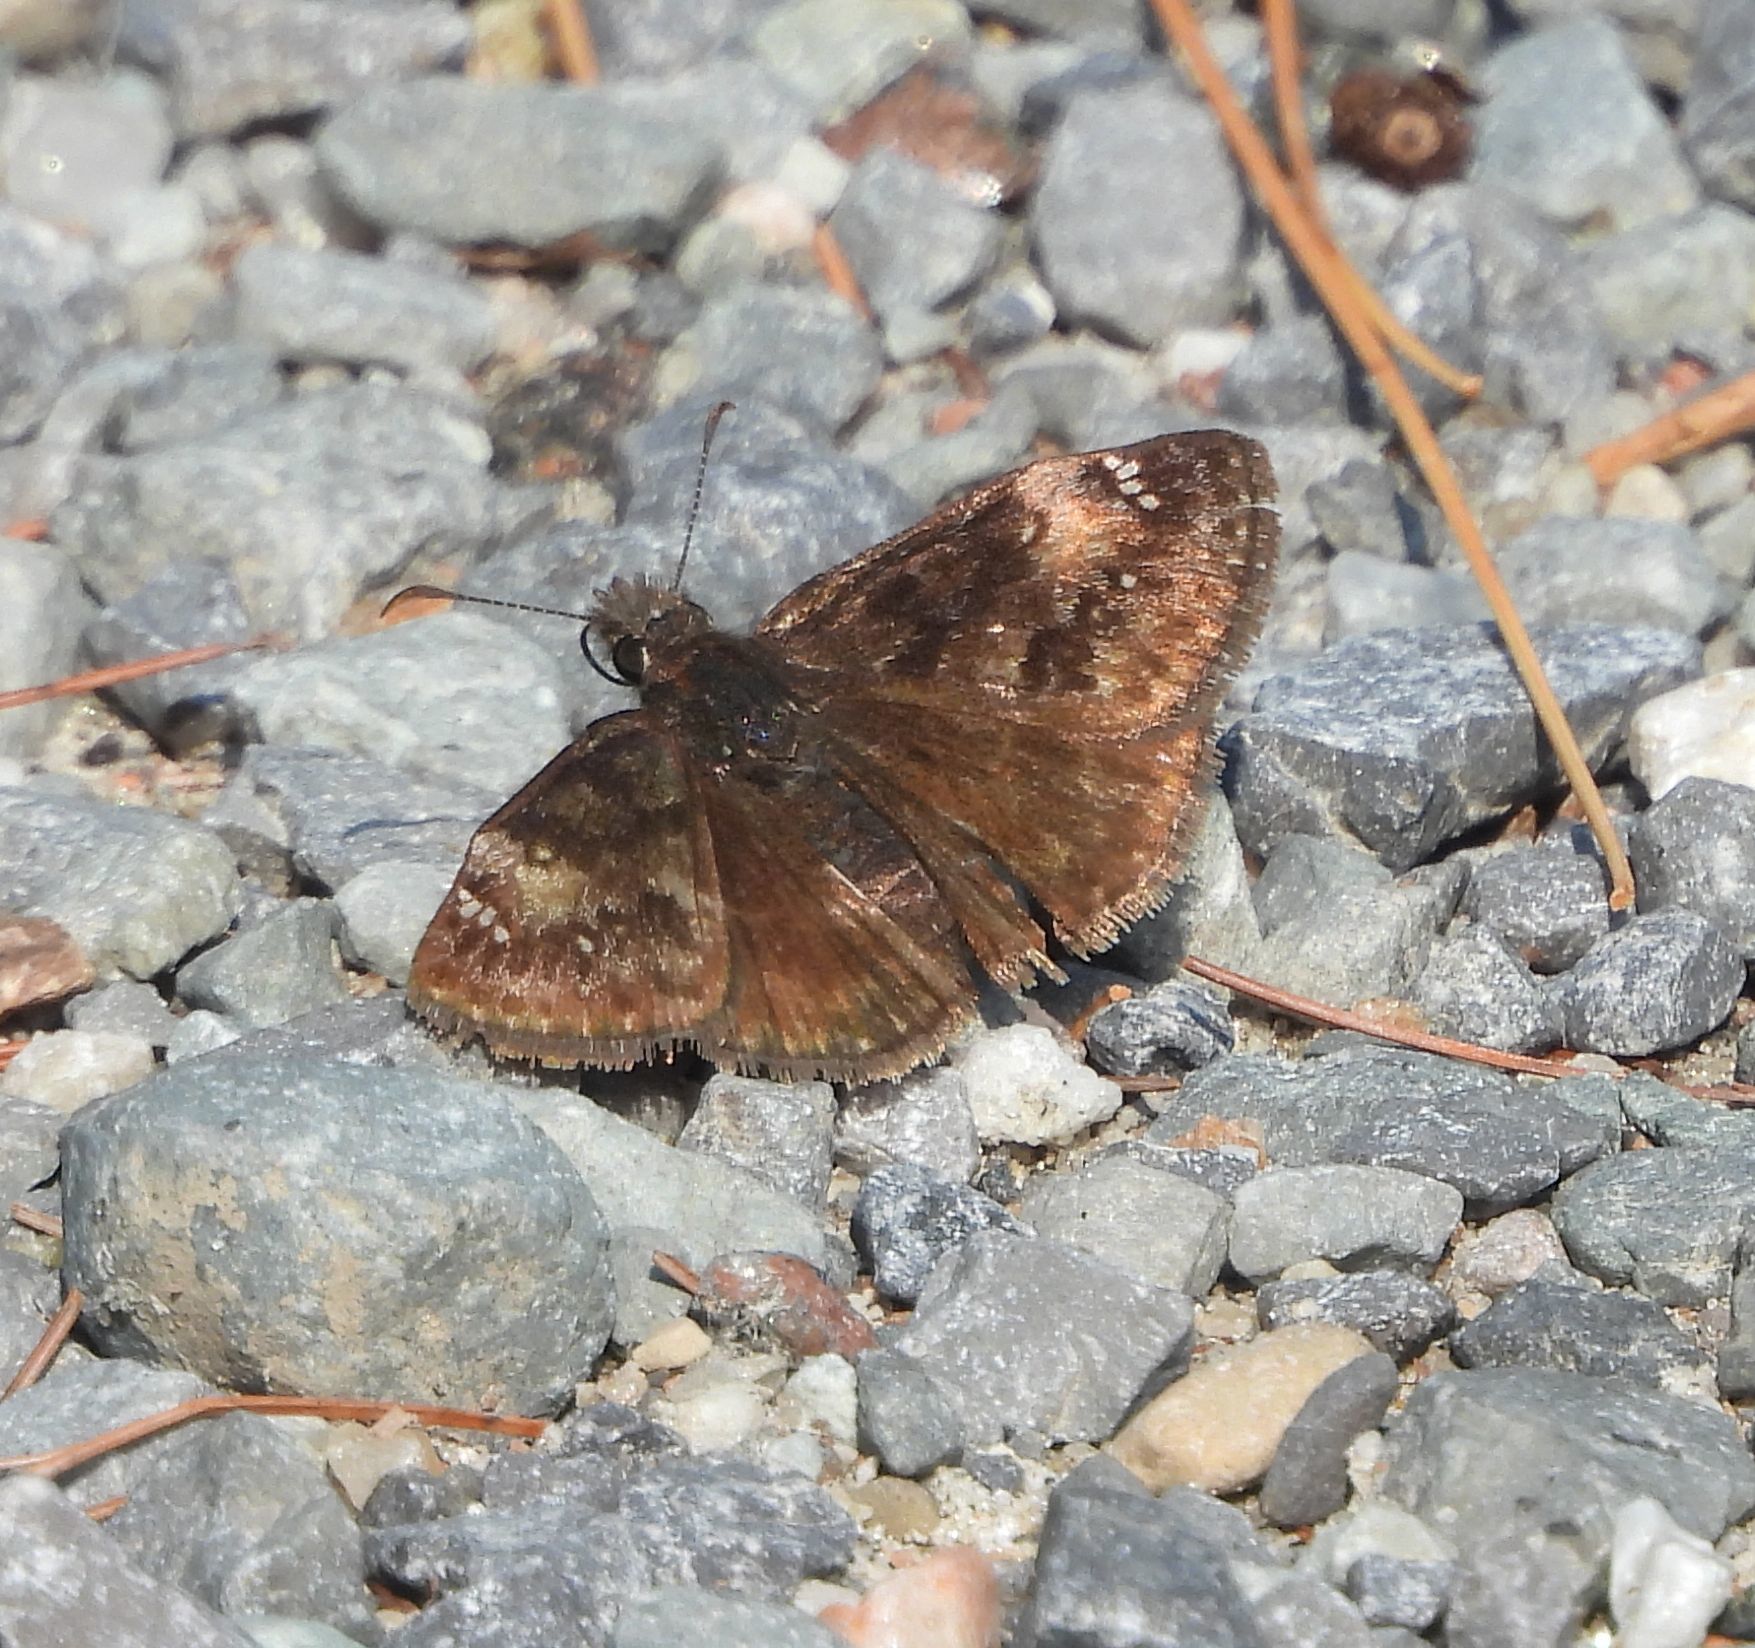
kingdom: Animalia
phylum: Arthropoda
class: Insecta
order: Lepidoptera
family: Hesperiidae
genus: Erynnis
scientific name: Erynnis lucilius
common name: Columbine duskywing
